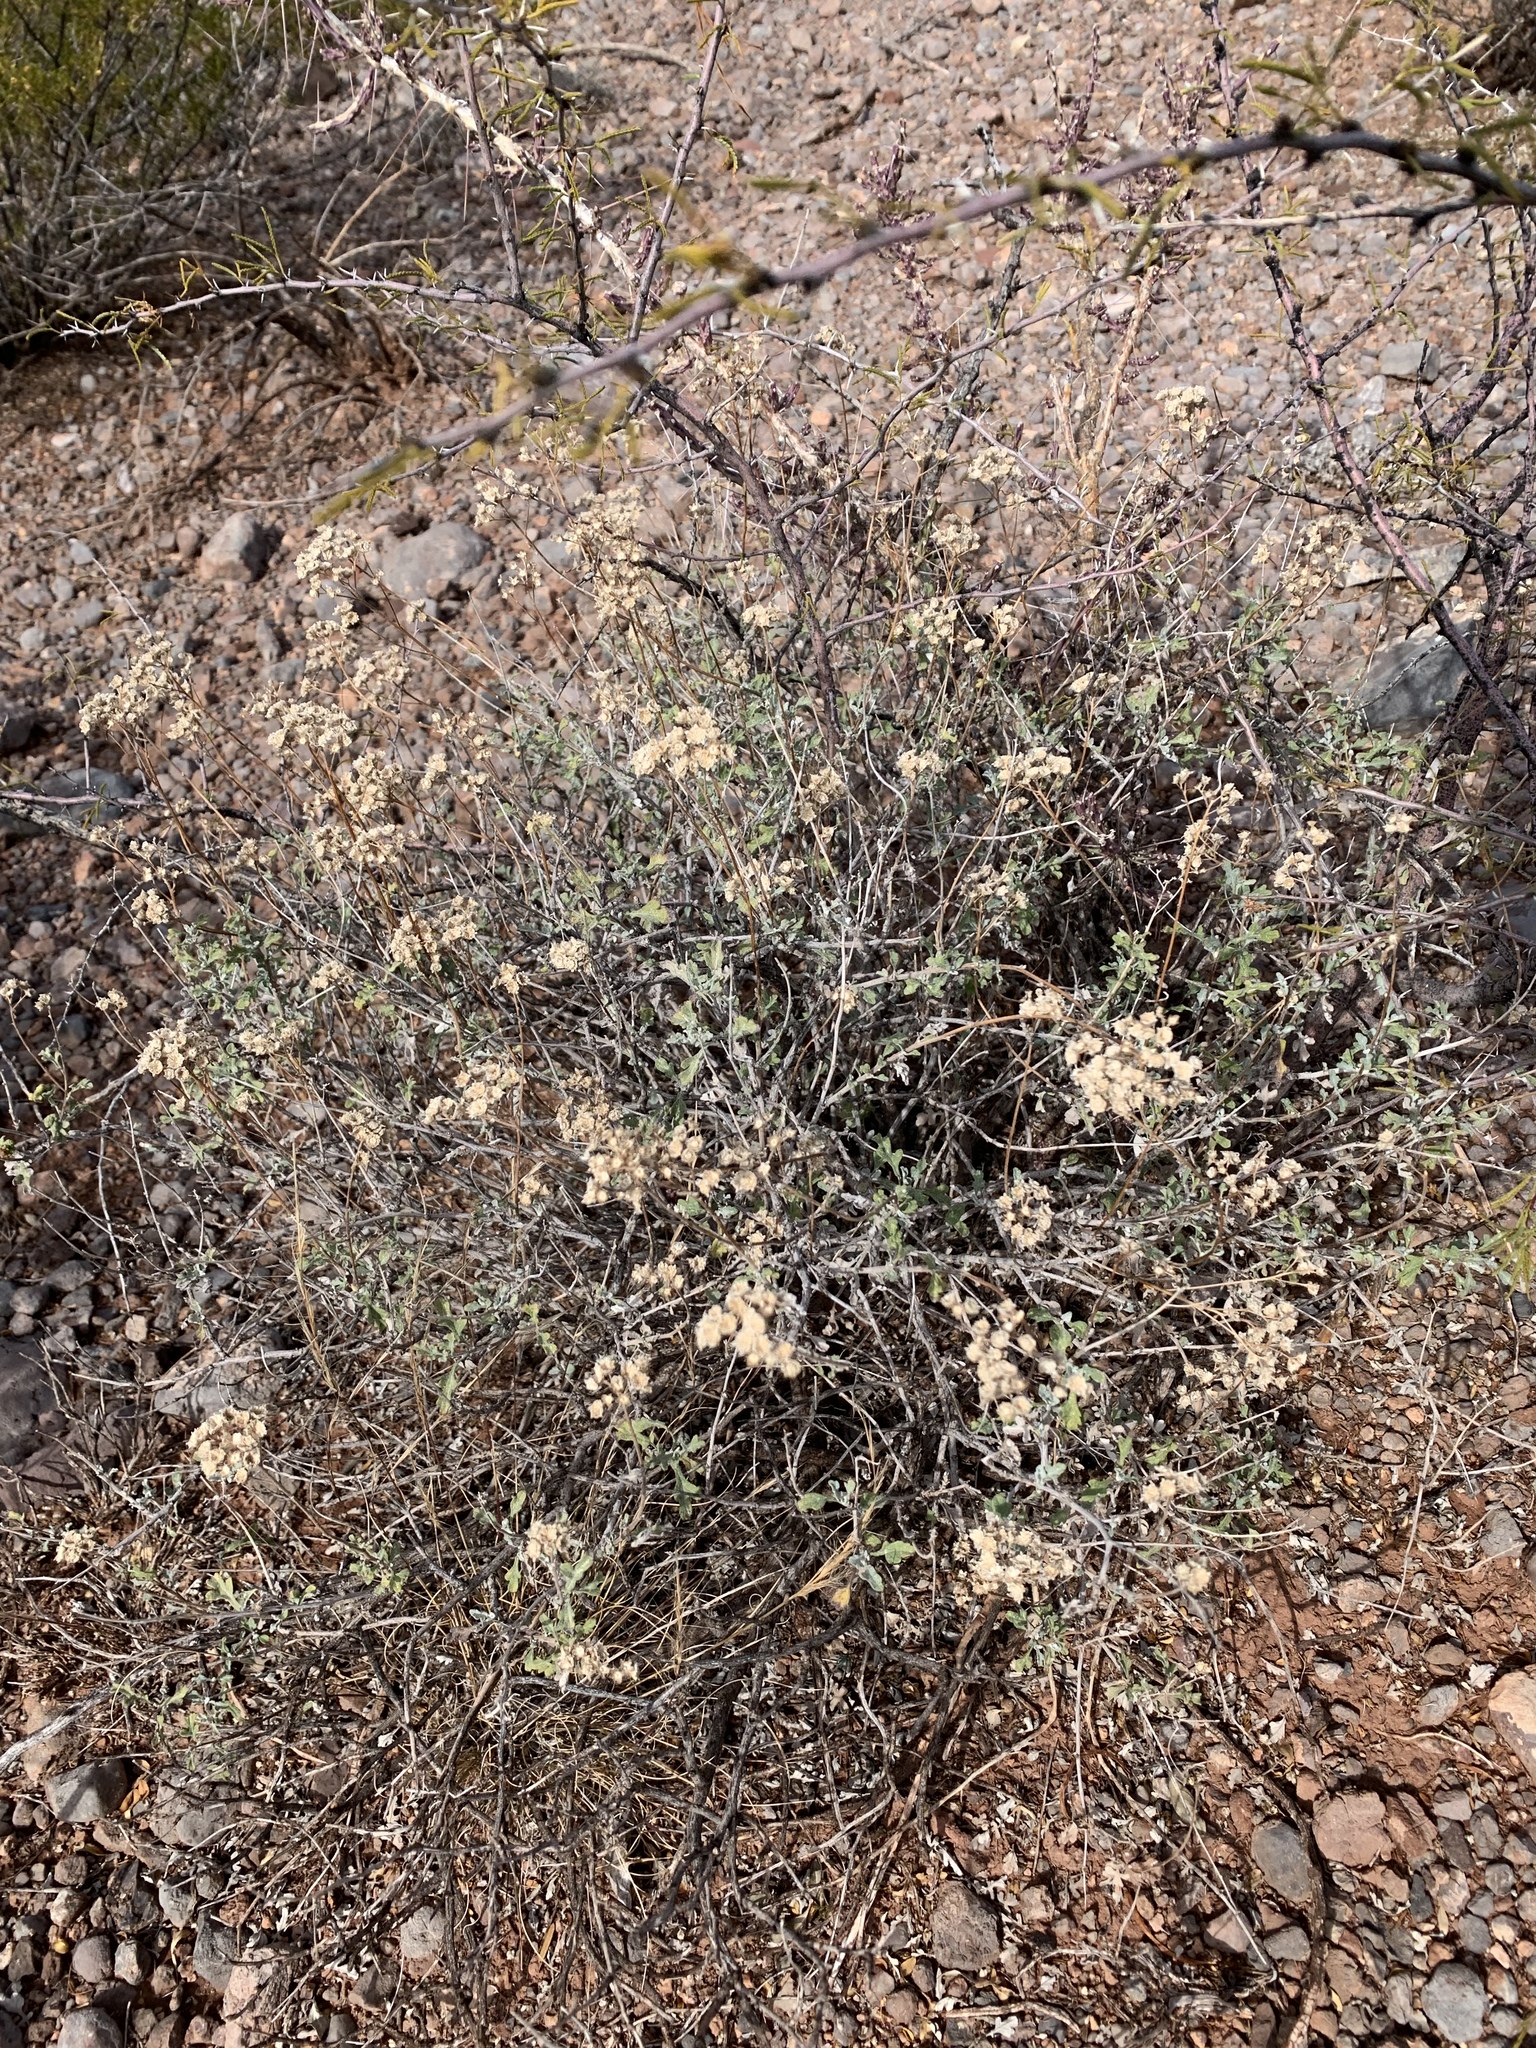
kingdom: Plantae
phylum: Tracheophyta
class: Magnoliopsida
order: Asterales
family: Asteraceae
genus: Parthenium
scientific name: Parthenium incanum
